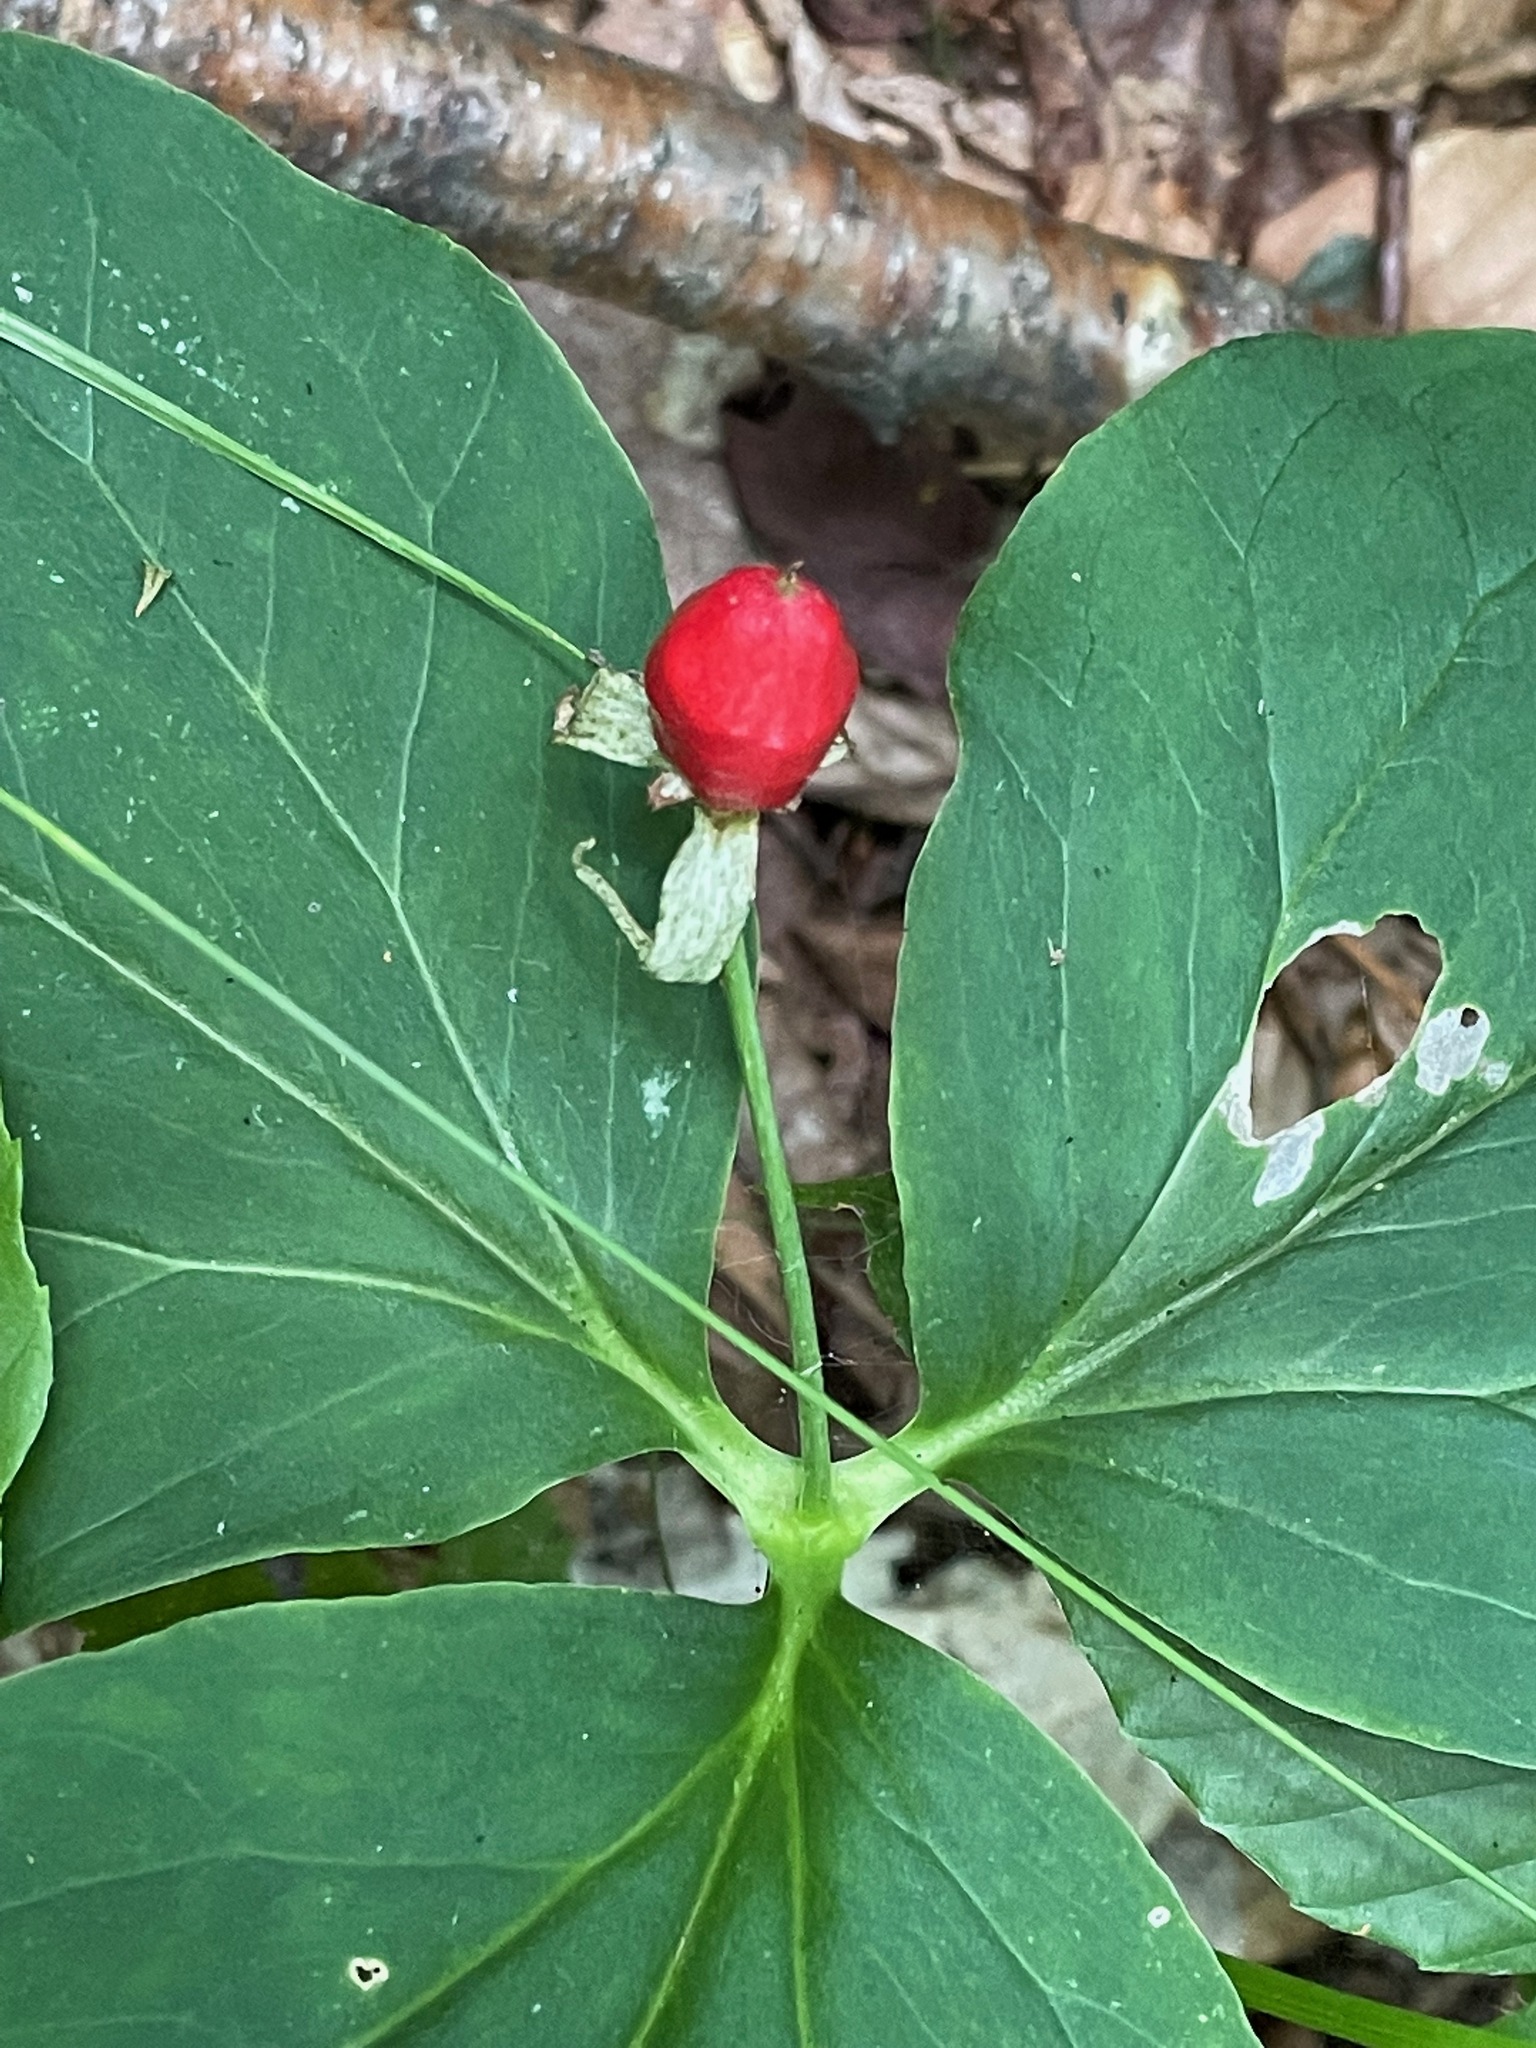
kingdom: Plantae
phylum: Tracheophyta
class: Liliopsida
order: Liliales
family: Melanthiaceae
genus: Trillium
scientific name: Trillium undulatum
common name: Paint trillium
